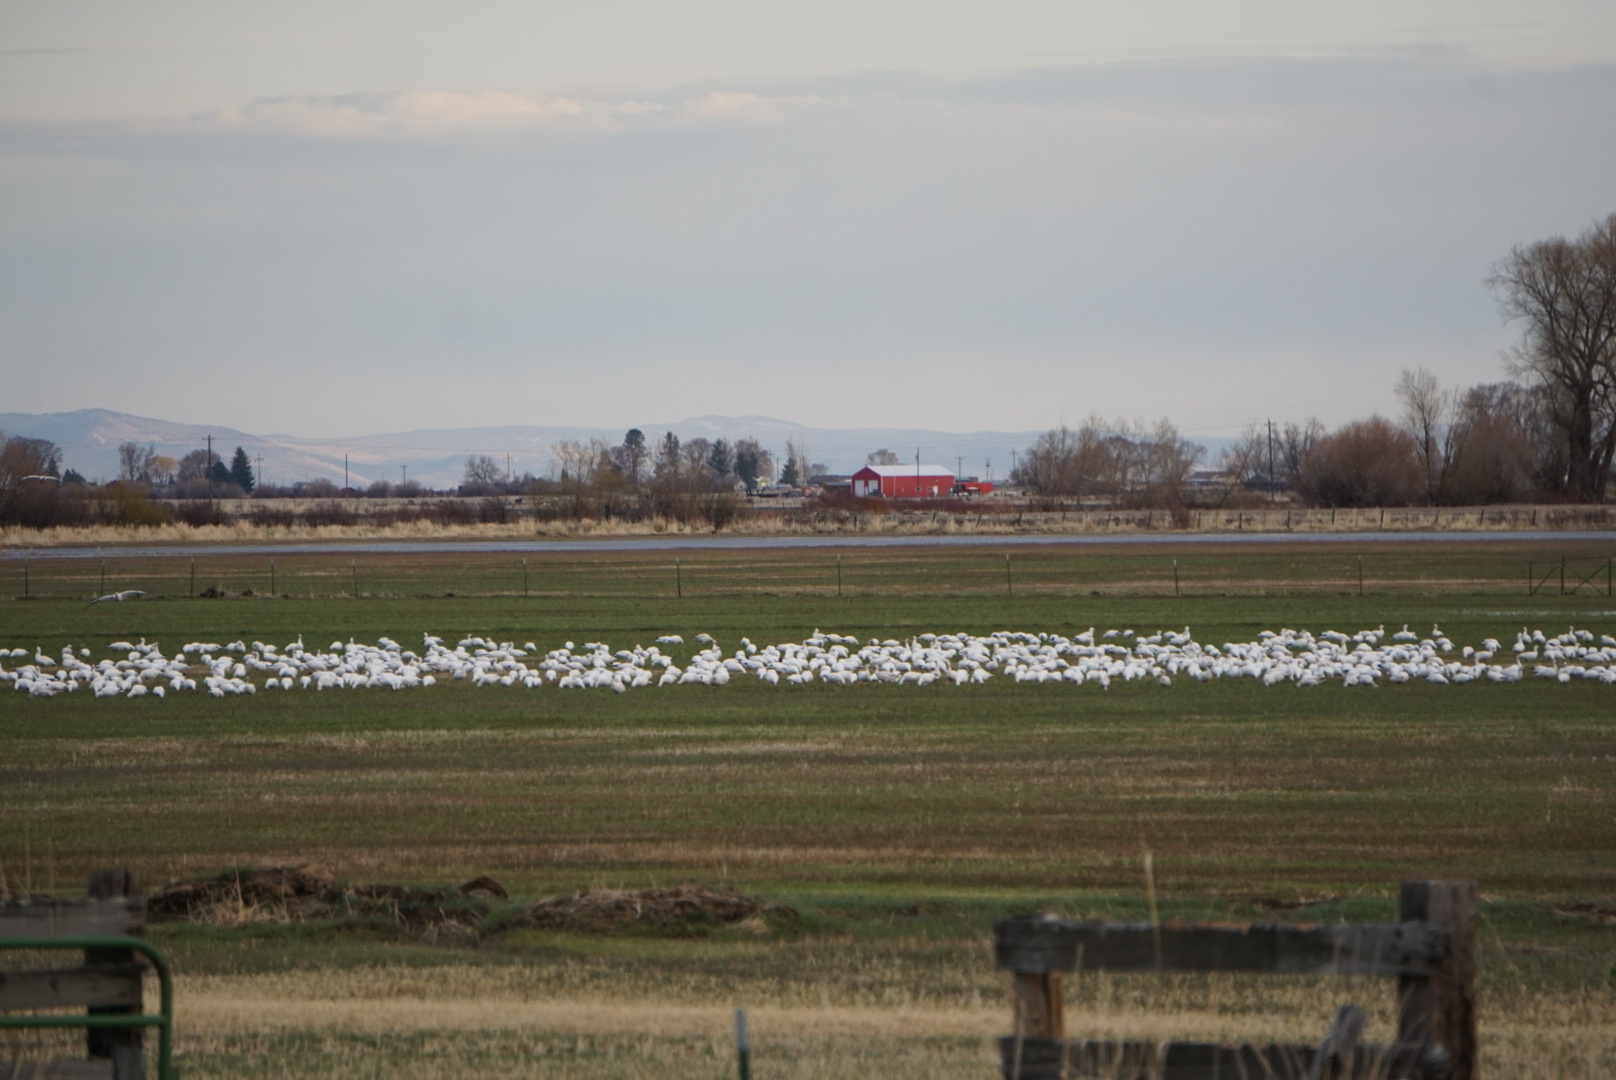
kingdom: Animalia
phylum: Chordata
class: Aves
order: Anseriformes
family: Anatidae
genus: Anser
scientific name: Anser caerulescens
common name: Snow goose
